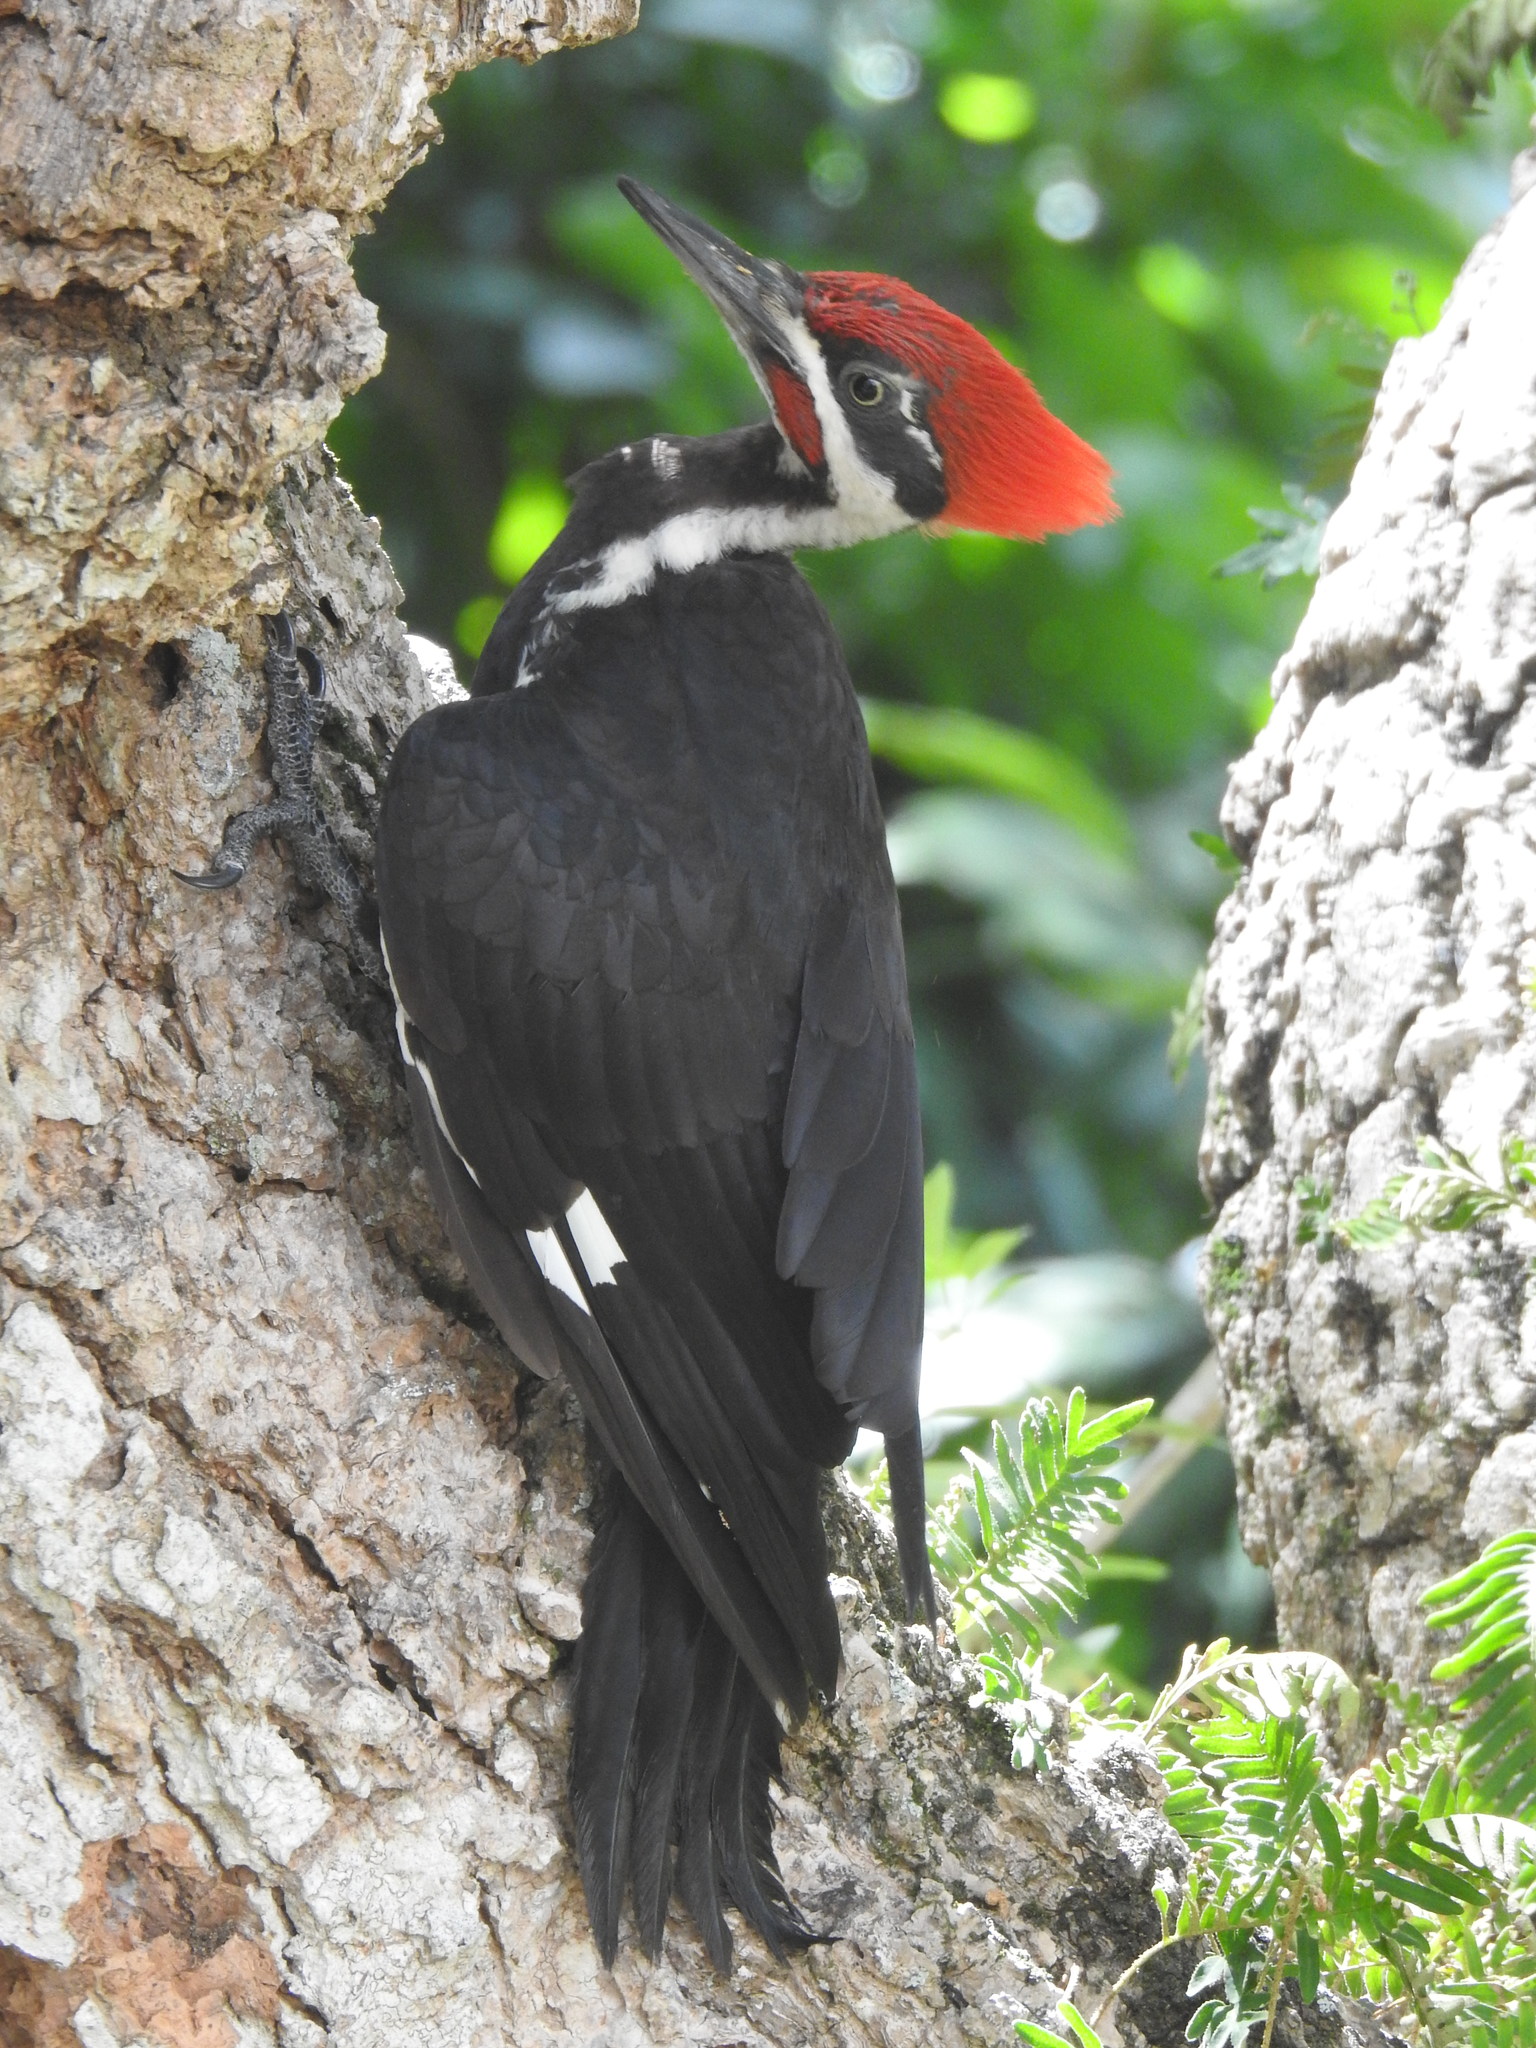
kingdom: Animalia
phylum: Chordata
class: Aves
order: Piciformes
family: Picidae
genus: Dryocopus
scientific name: Dryocopus pileatus
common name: Pileated woodpecker
